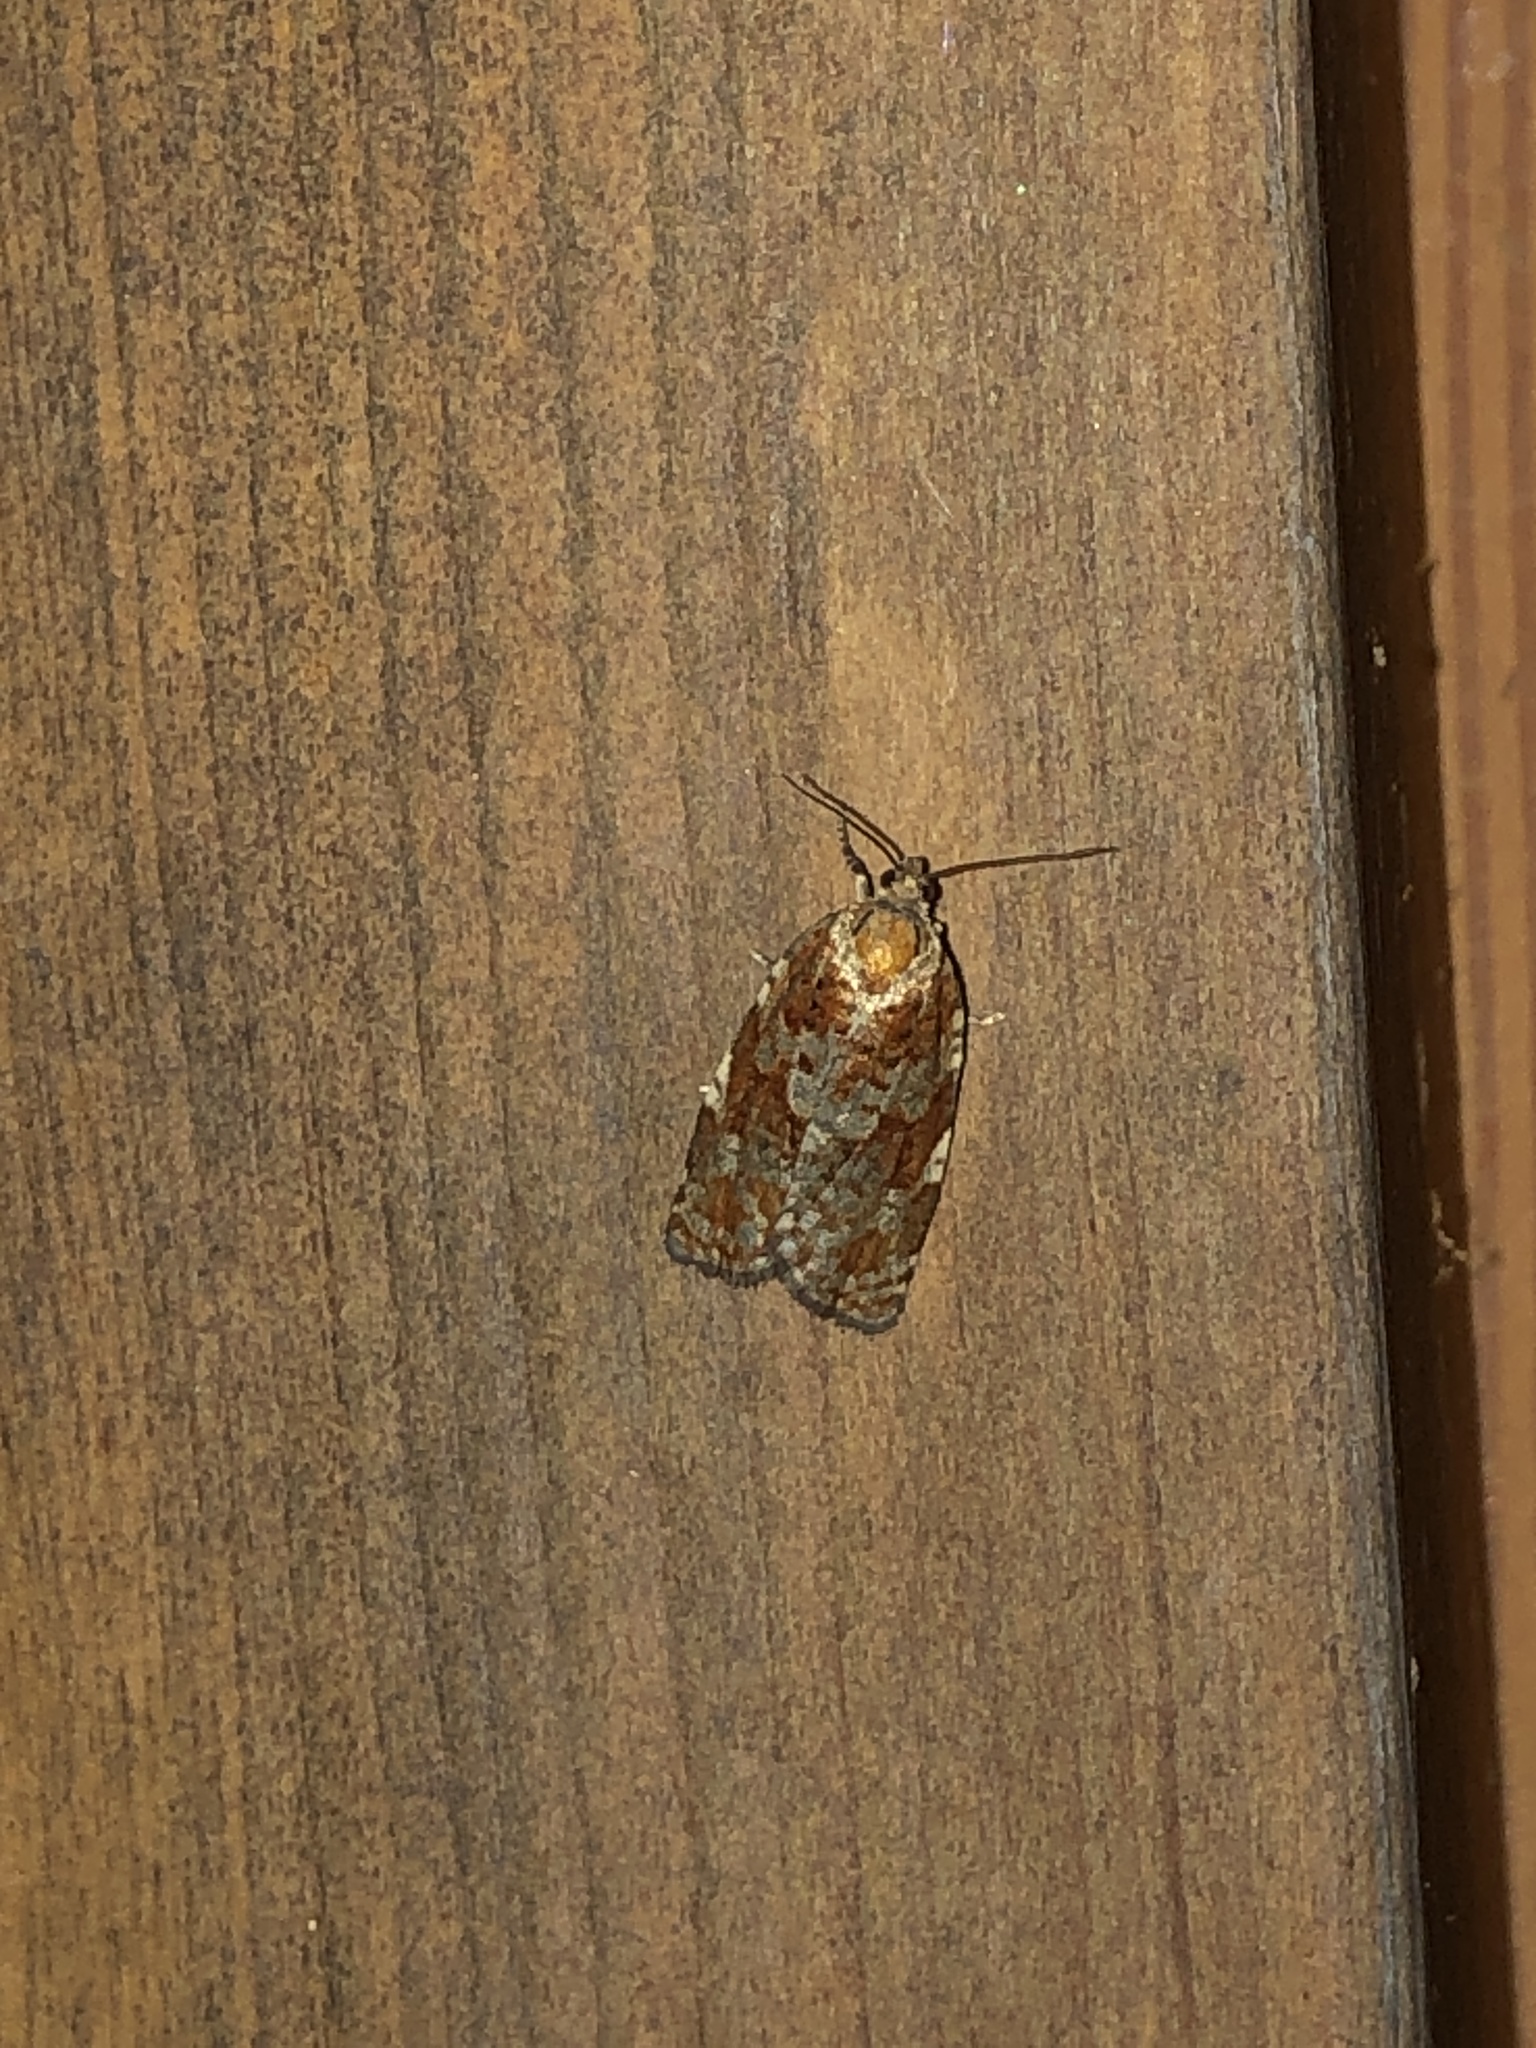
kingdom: Animalia
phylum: Arthropoda
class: Insecta
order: Lepidoptera
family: Tortricidae
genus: Archips
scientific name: Archips argyrospila
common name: Fruit-tree leafroller moth
